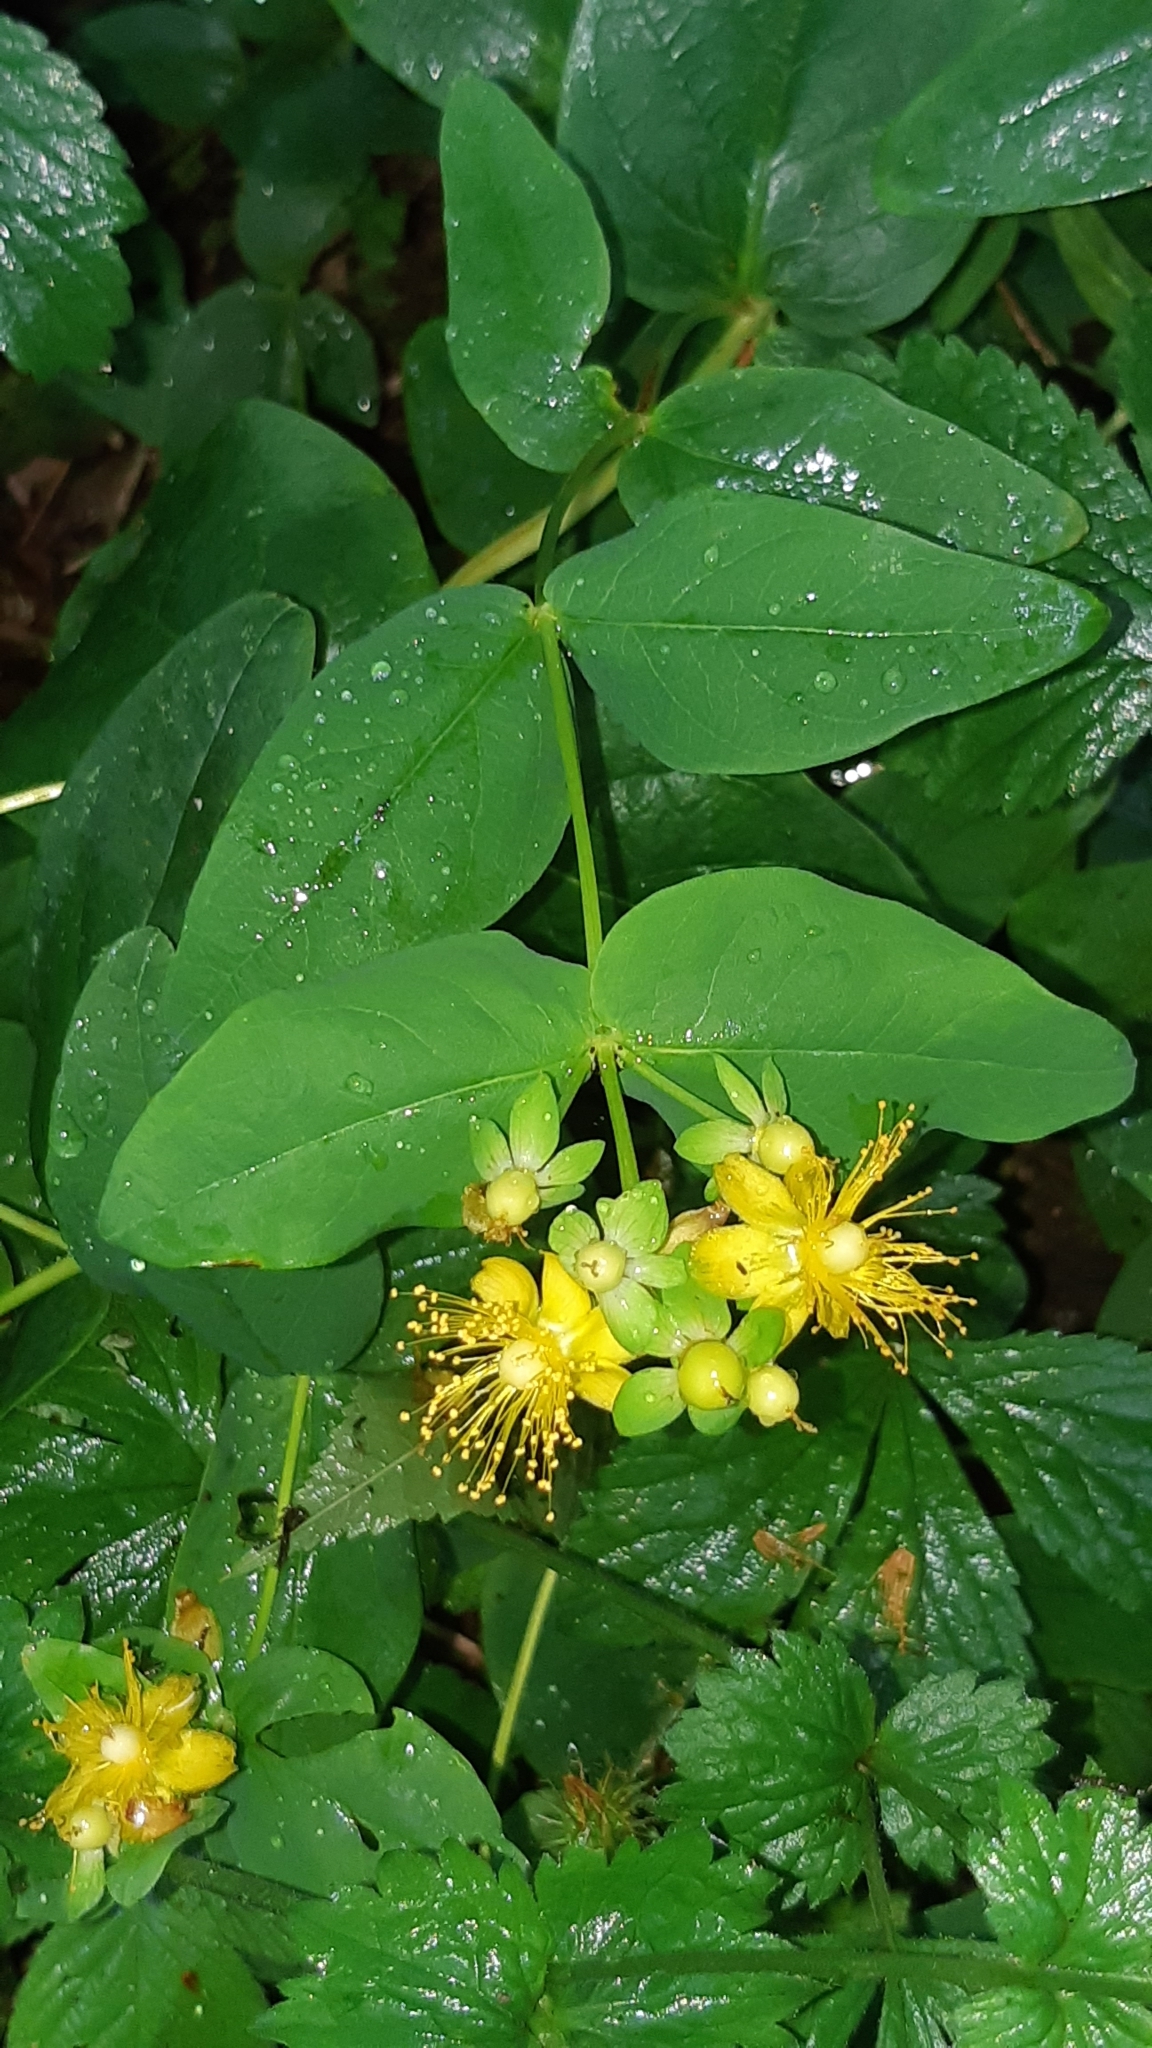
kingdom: Plantae
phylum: Tracheophyta
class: Magnoliopsida
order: Malpighiales
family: Hypericaceae
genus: Hypericum
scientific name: Hypericum androsaemum
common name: Sweet-amber
